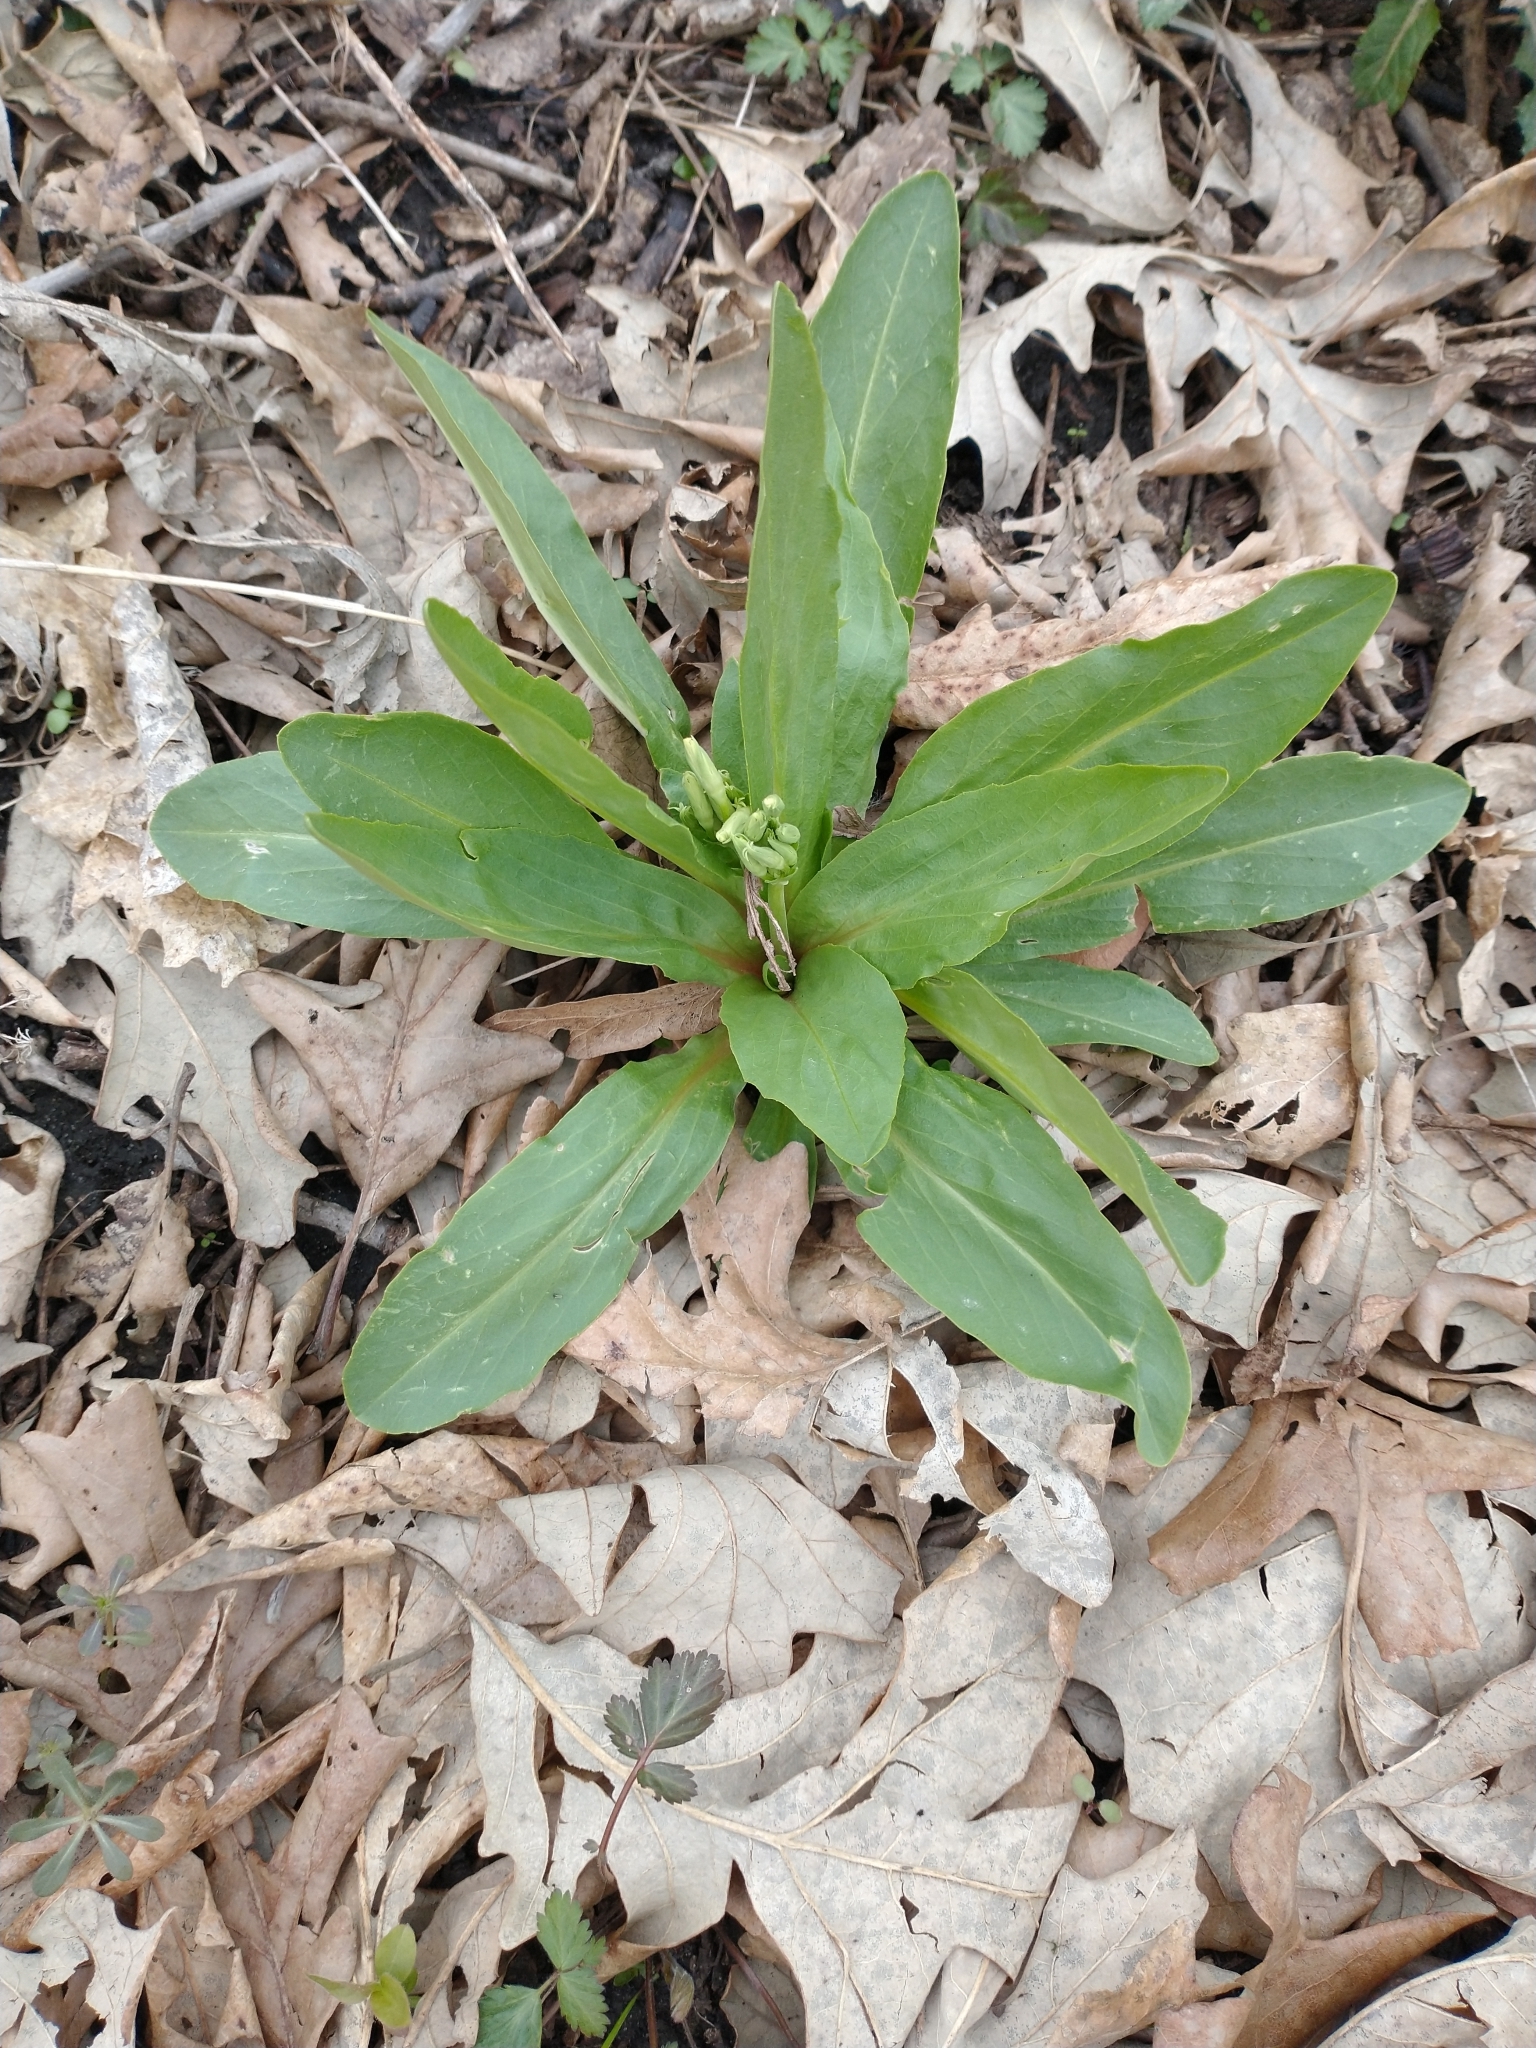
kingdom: Plantae
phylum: Tracheophyta
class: Magnoliopsida
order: Ericales
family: Primulaceae
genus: Dodecatheon
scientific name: Dodecatheon meadia
